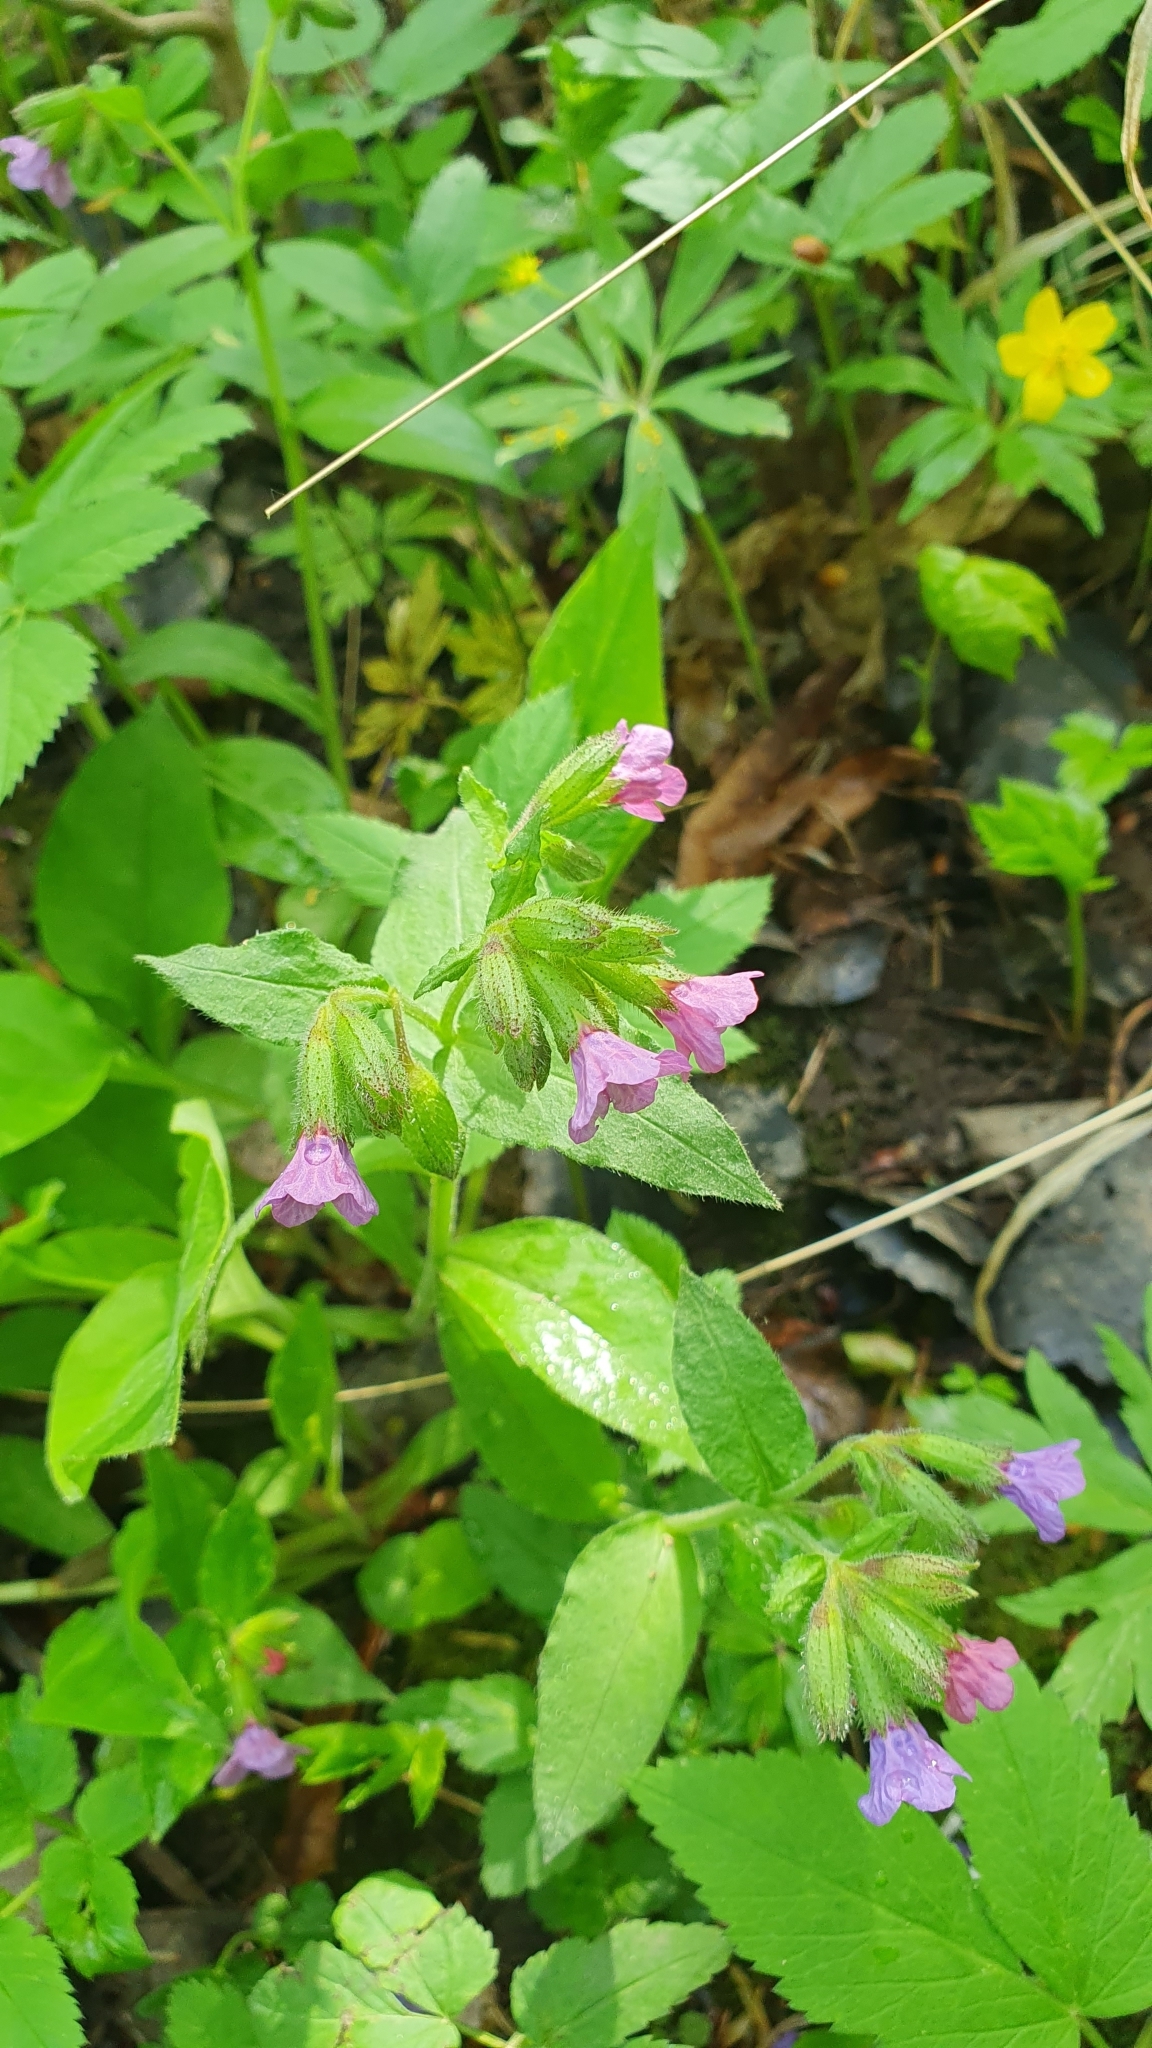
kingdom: Plantae
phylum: Tracheophyta
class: Magnoliopsida
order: Boraginales
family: Boraginaceae
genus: Pulmonaria
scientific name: Pulmonaria obscura
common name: Suffolk lungwort
